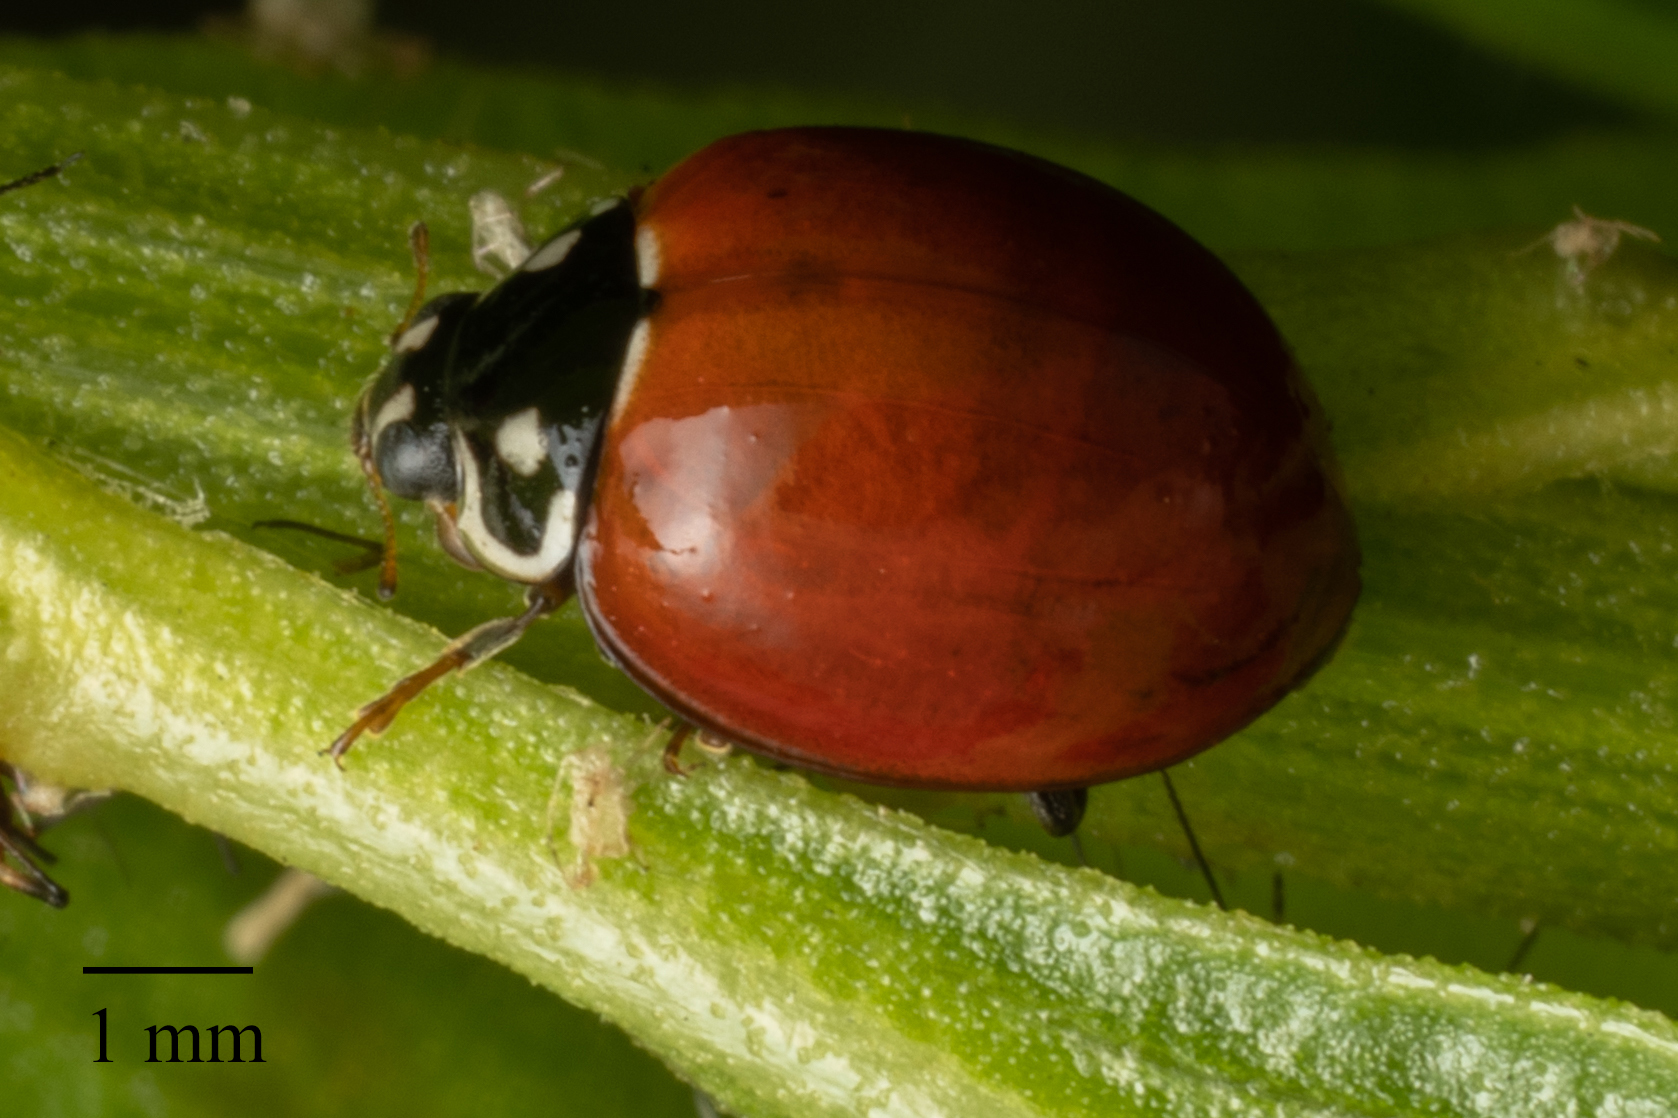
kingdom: Animalia
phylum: Arthropoda
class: Insecta
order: Coleoptera
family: Coccinellidae
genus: Cycloneda
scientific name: Cycloneda sanguinea
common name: Ladybird beetle
